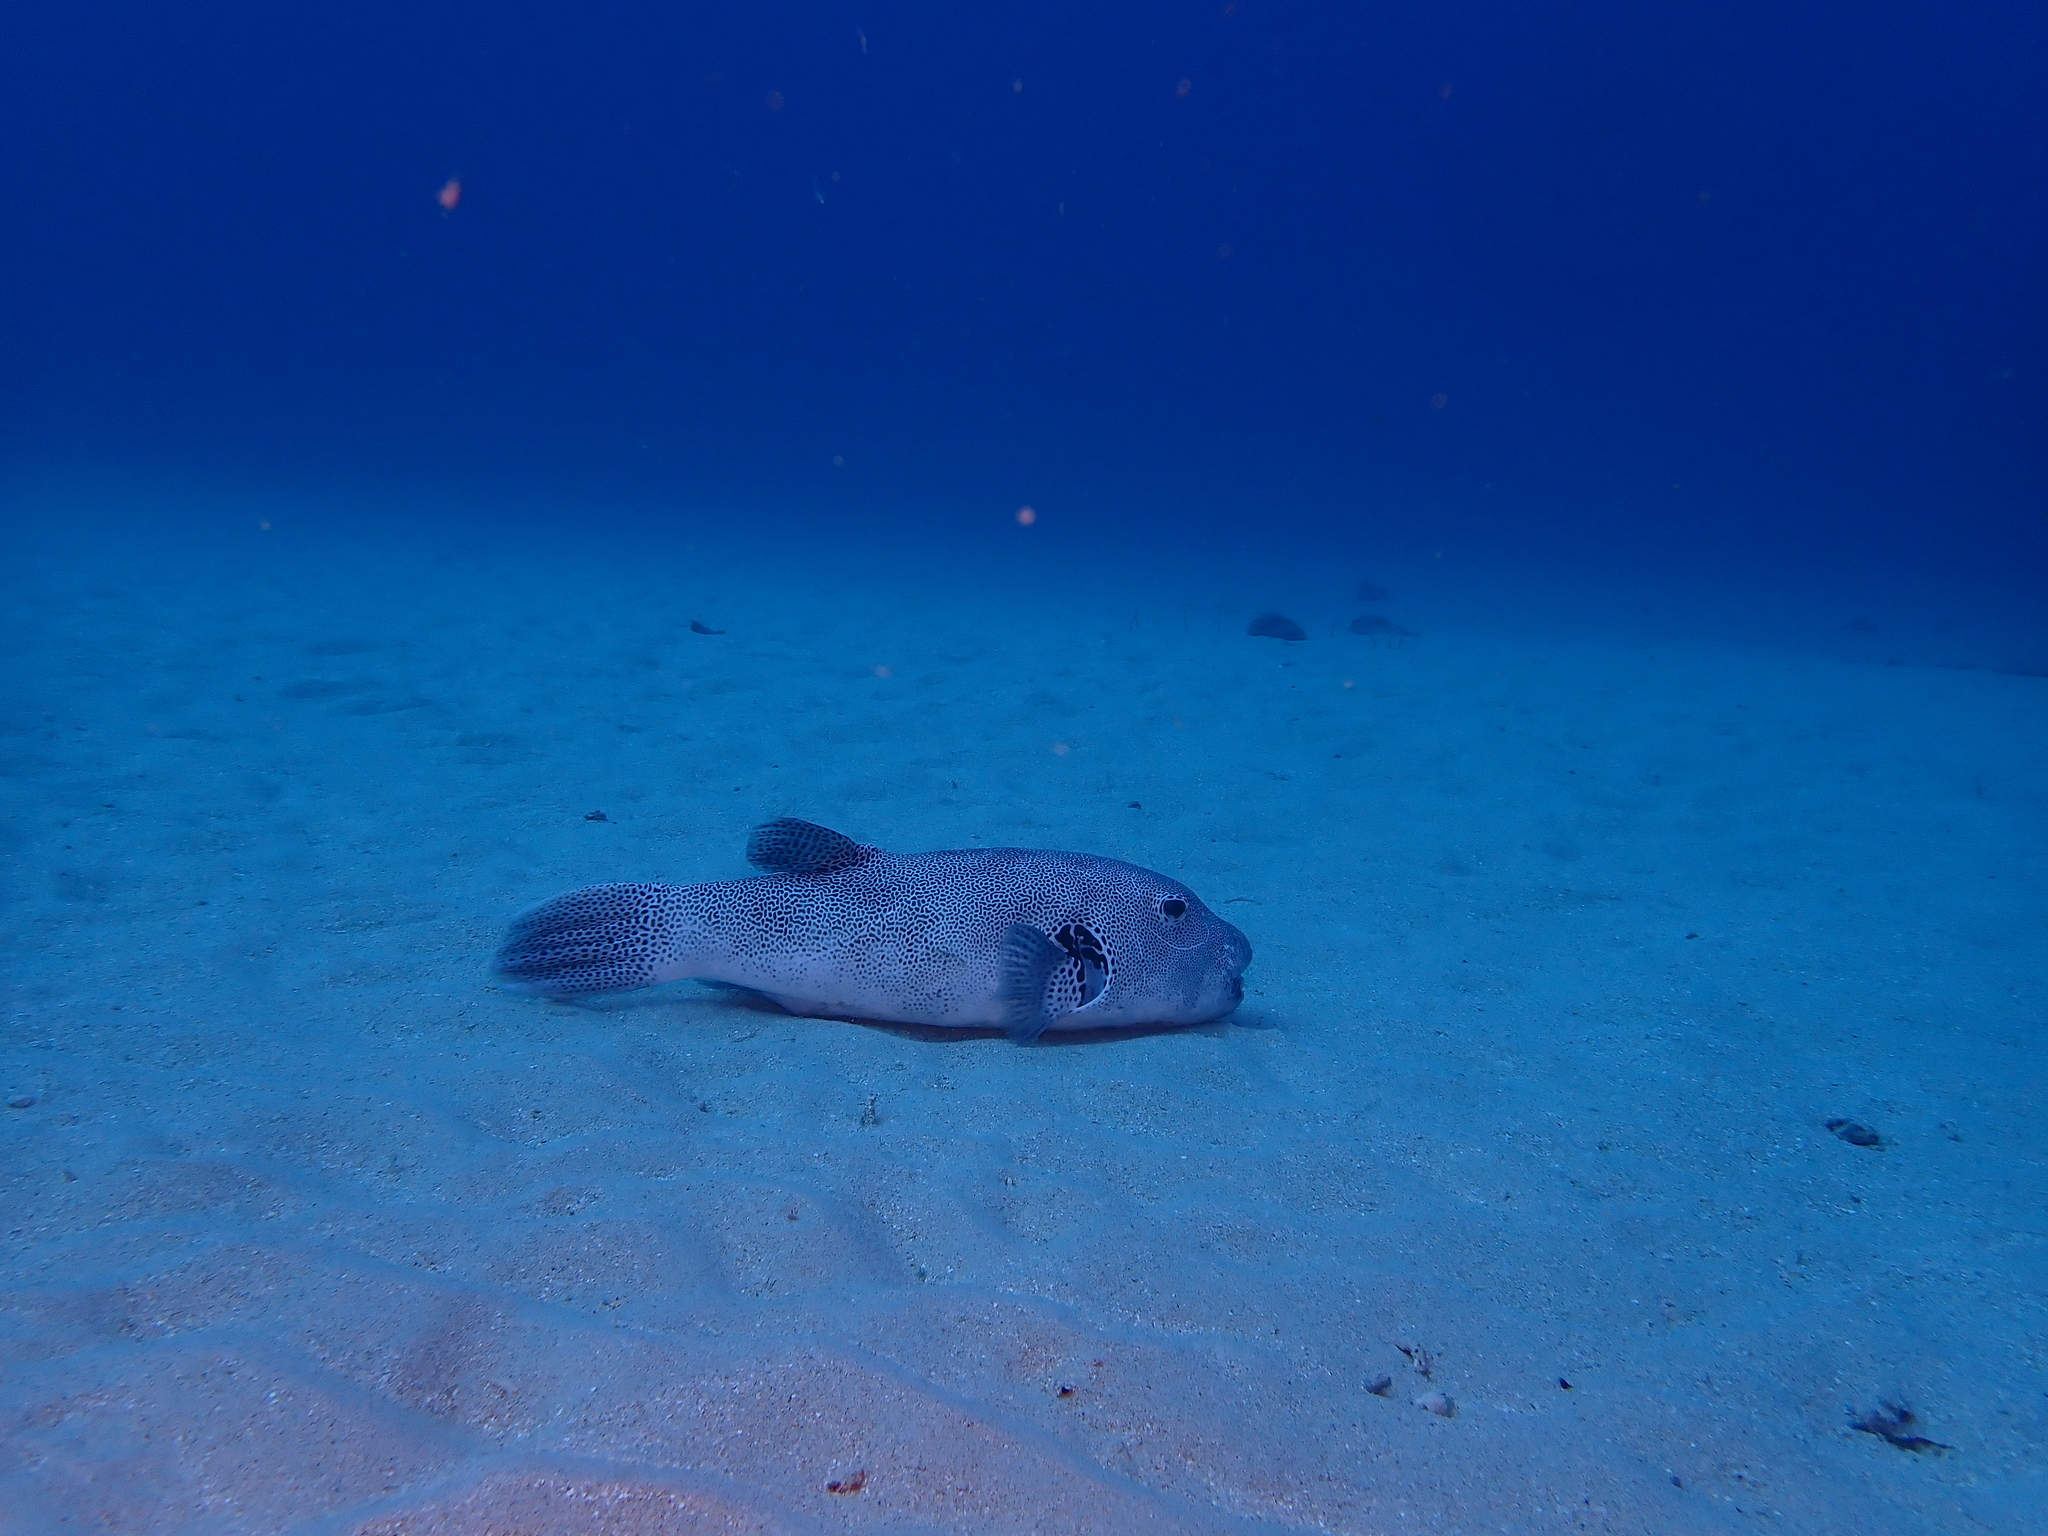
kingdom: Animalia
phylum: Chordata
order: Tetraodontiformes
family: Tetraodontidae
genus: Arothron
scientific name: Arothron stellatus
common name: Star blaasop
